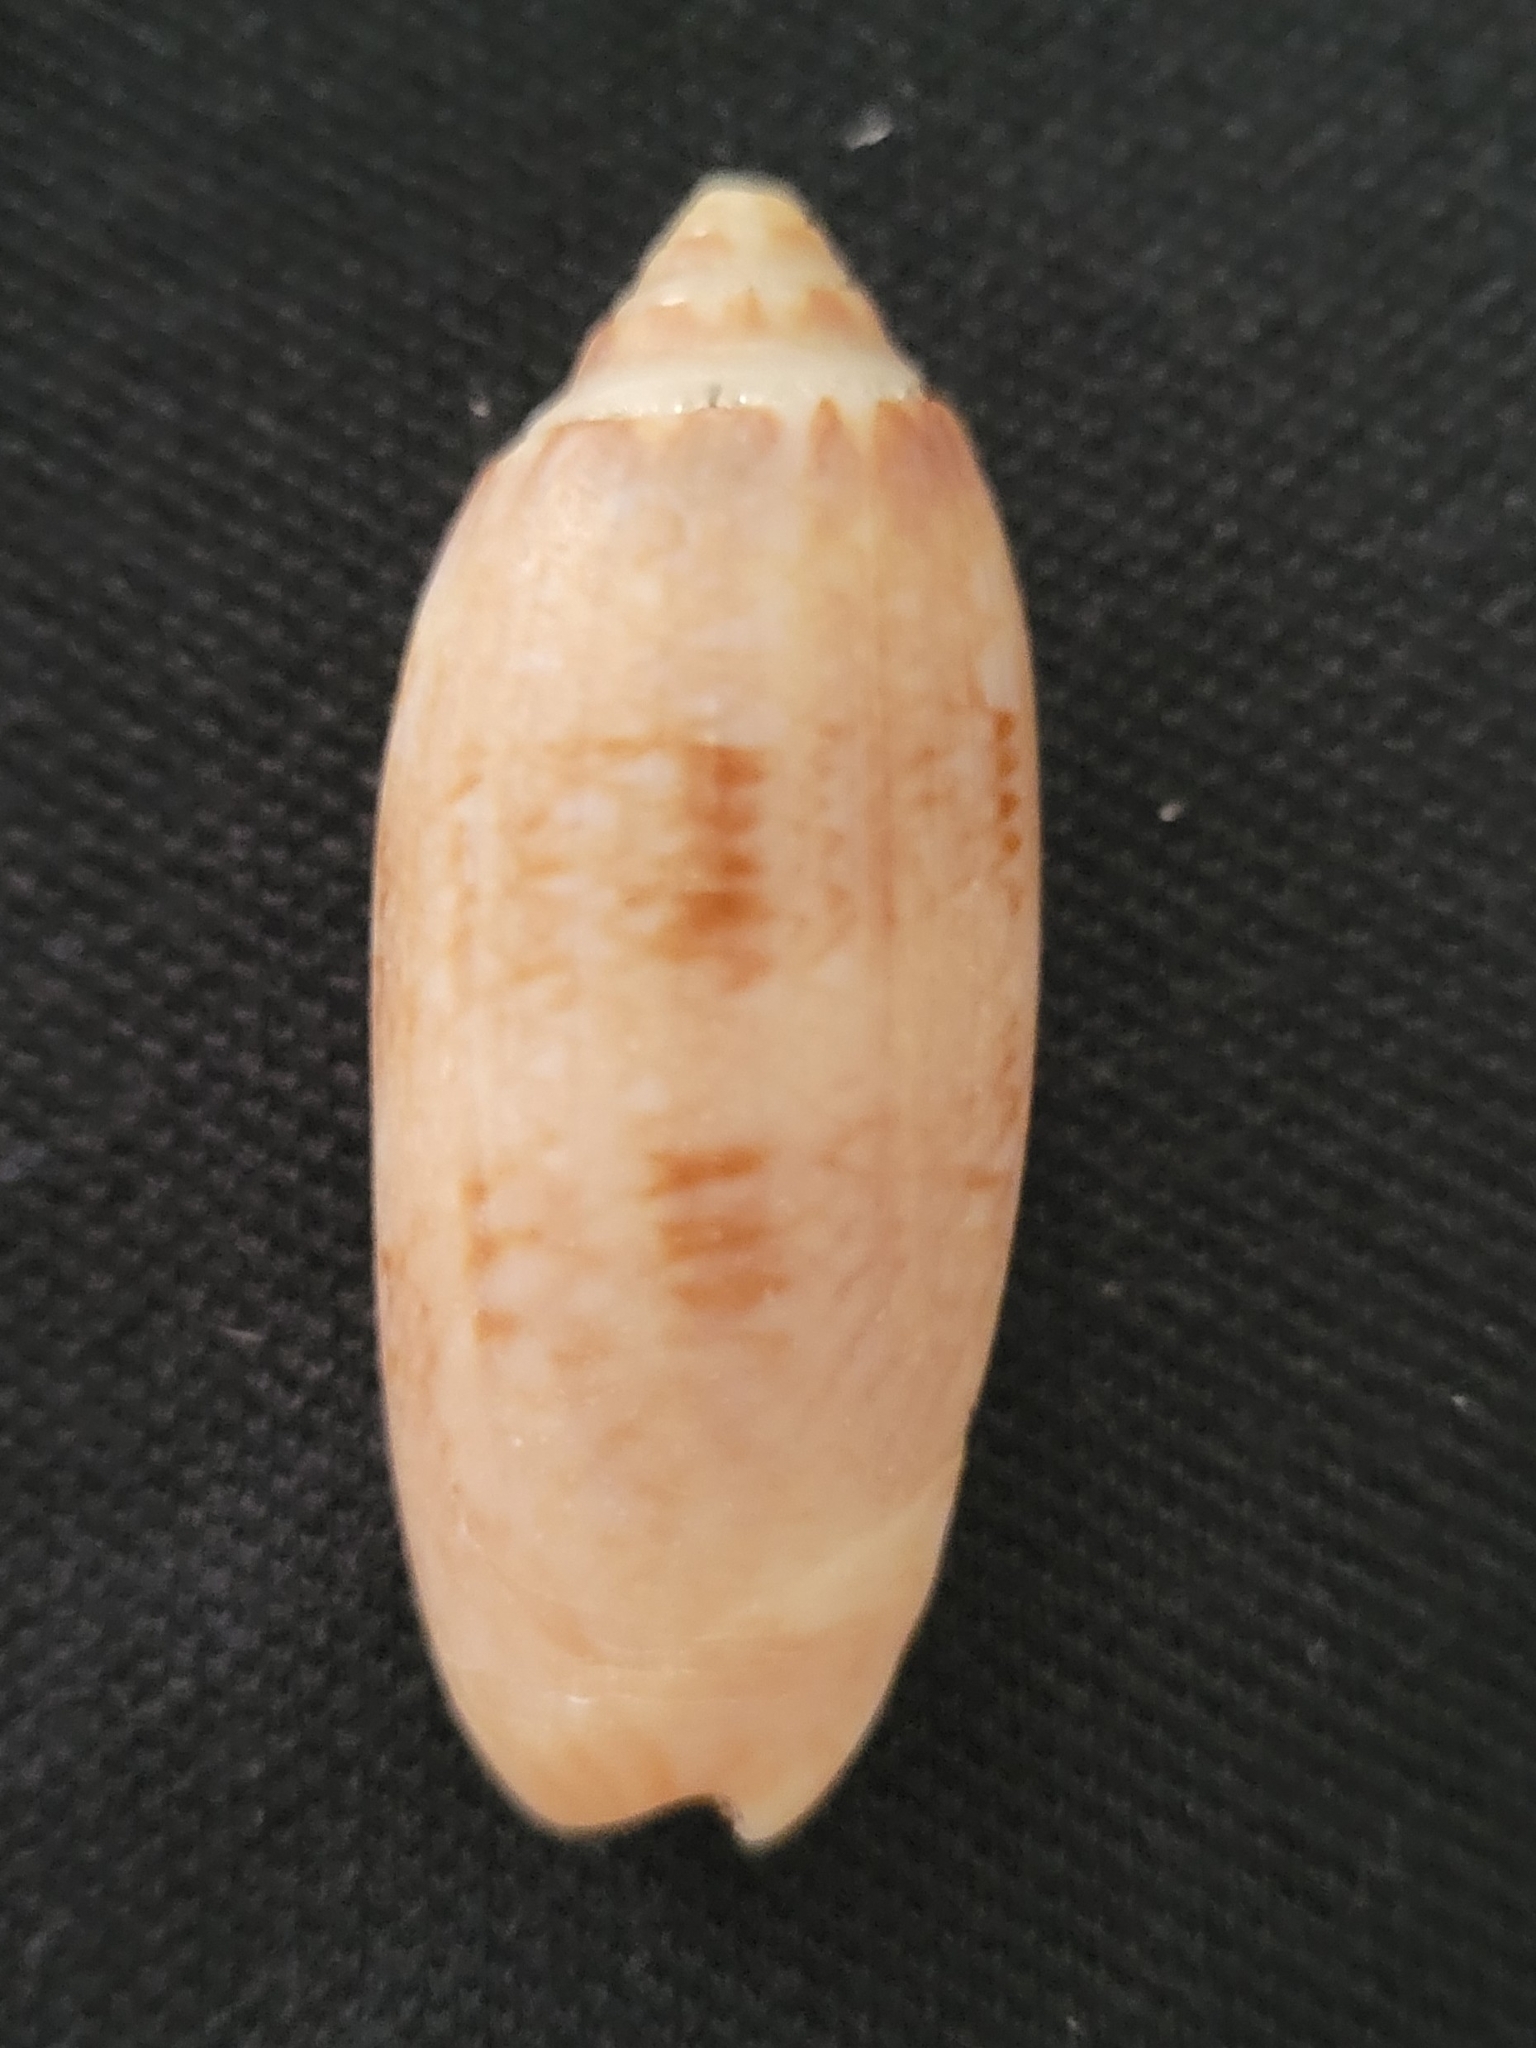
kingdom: Animalia
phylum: Mollusca
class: Gastropoda
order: Neogastropoda
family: Olividae
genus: Oliva
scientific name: Oliva sayana
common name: Lettered olive
